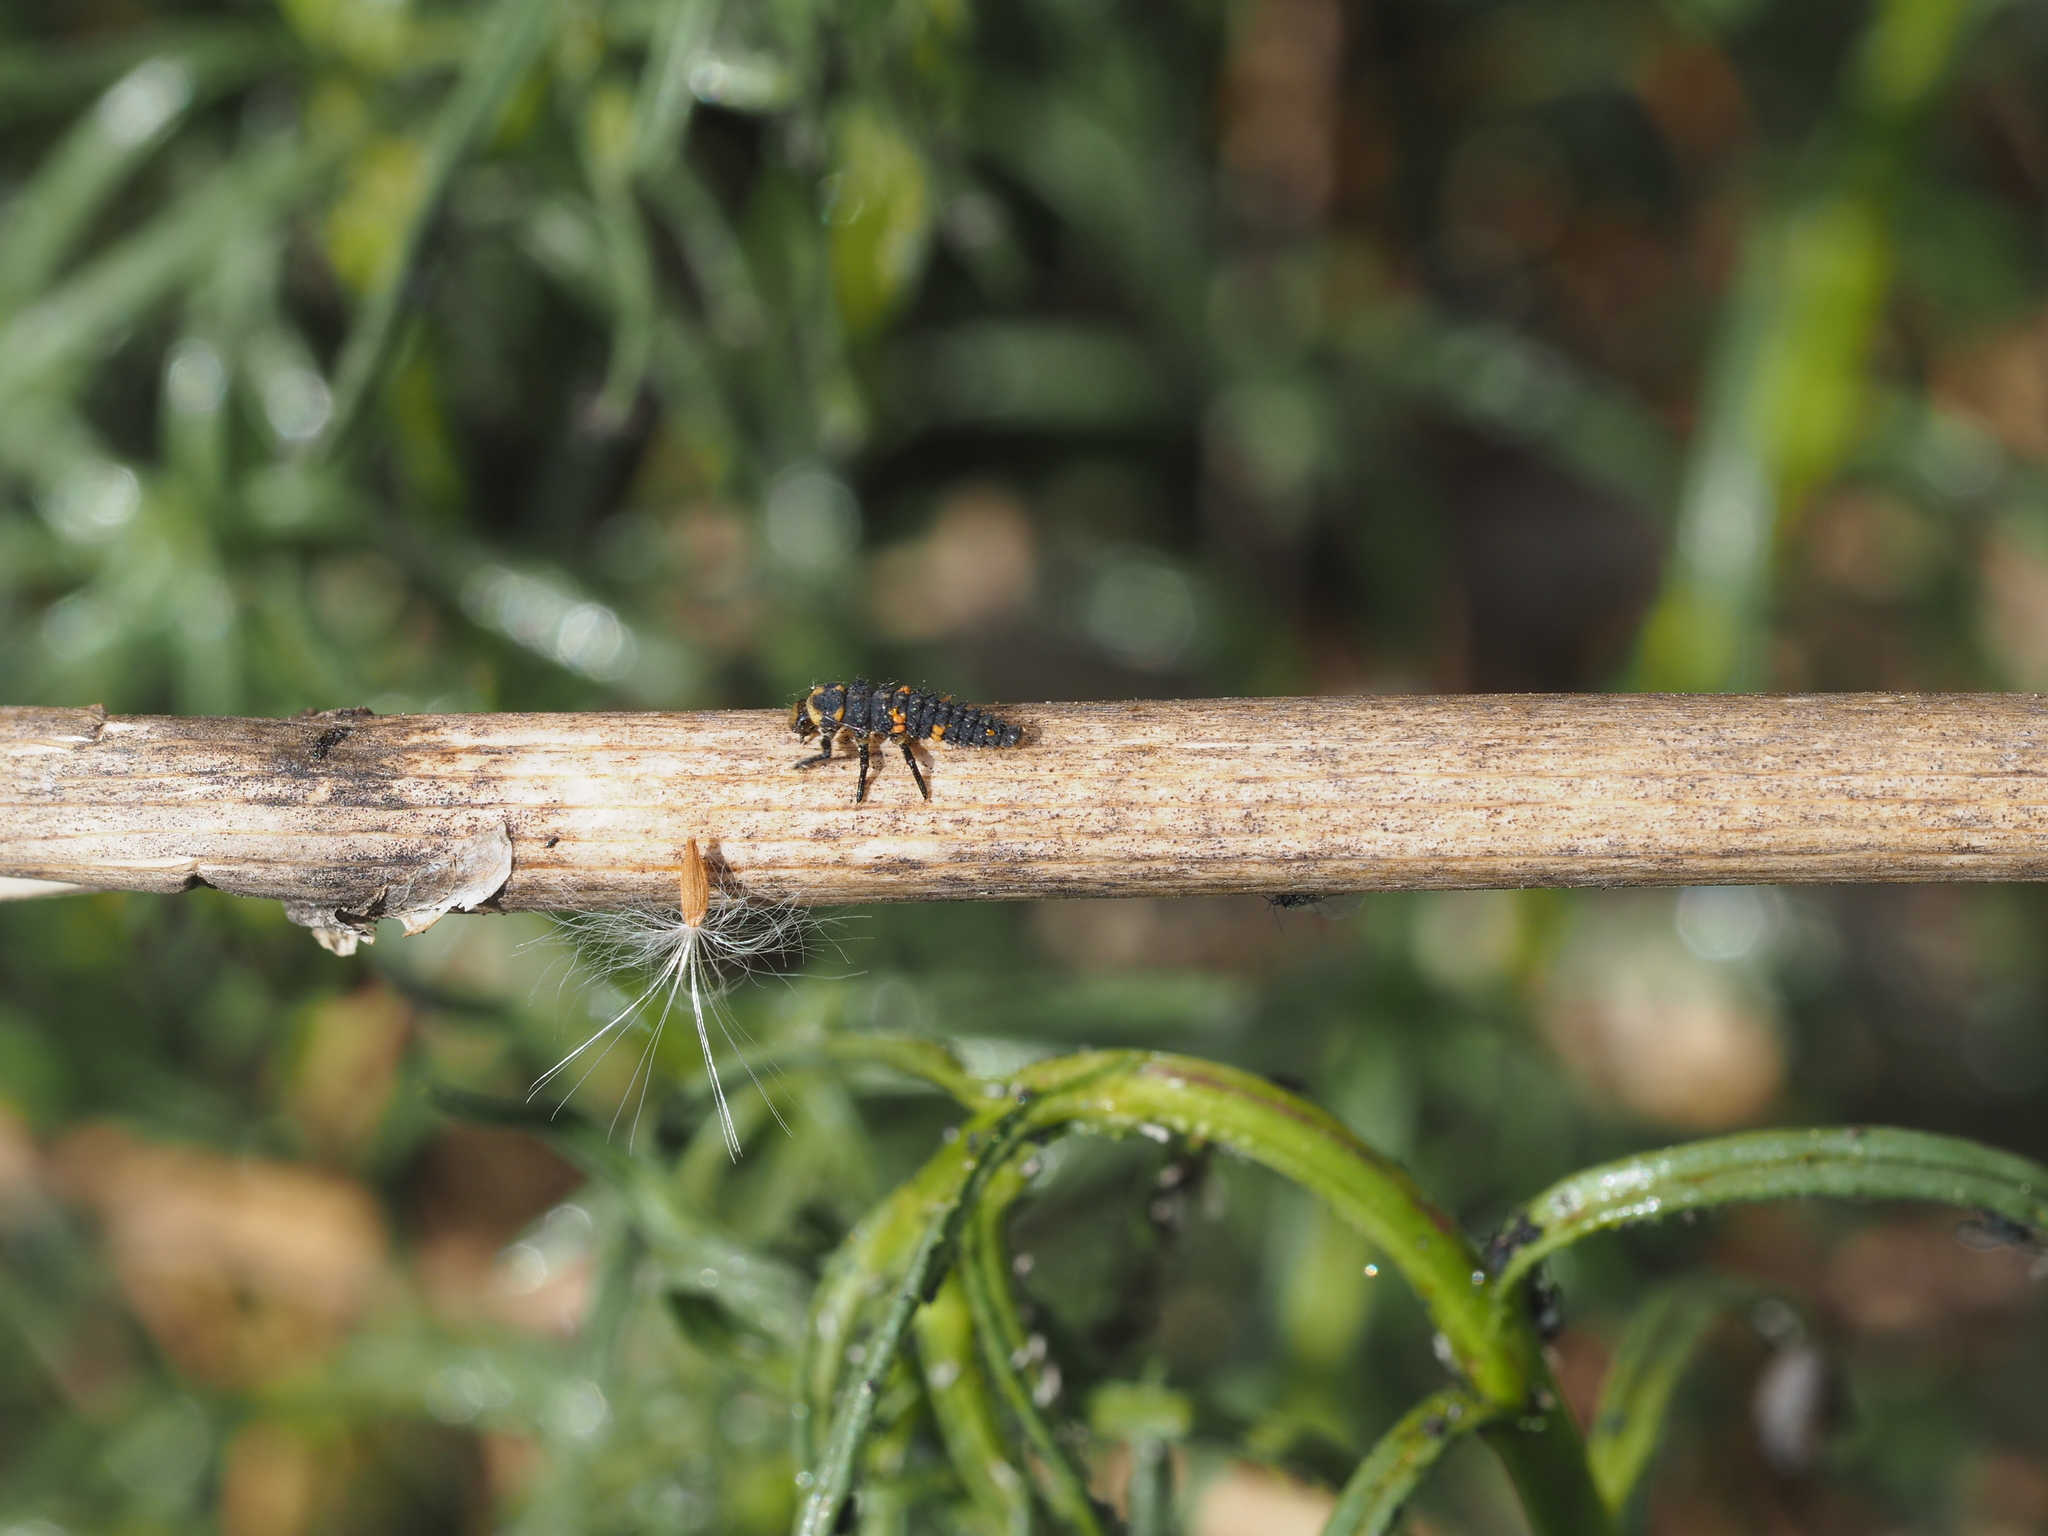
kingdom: Animalia
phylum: Arthropoda
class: Insecta
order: Coleoptera
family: Coccinellidae
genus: Coccinella
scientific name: Coccinella septempunctata
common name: Sevenspotted lady beetle
